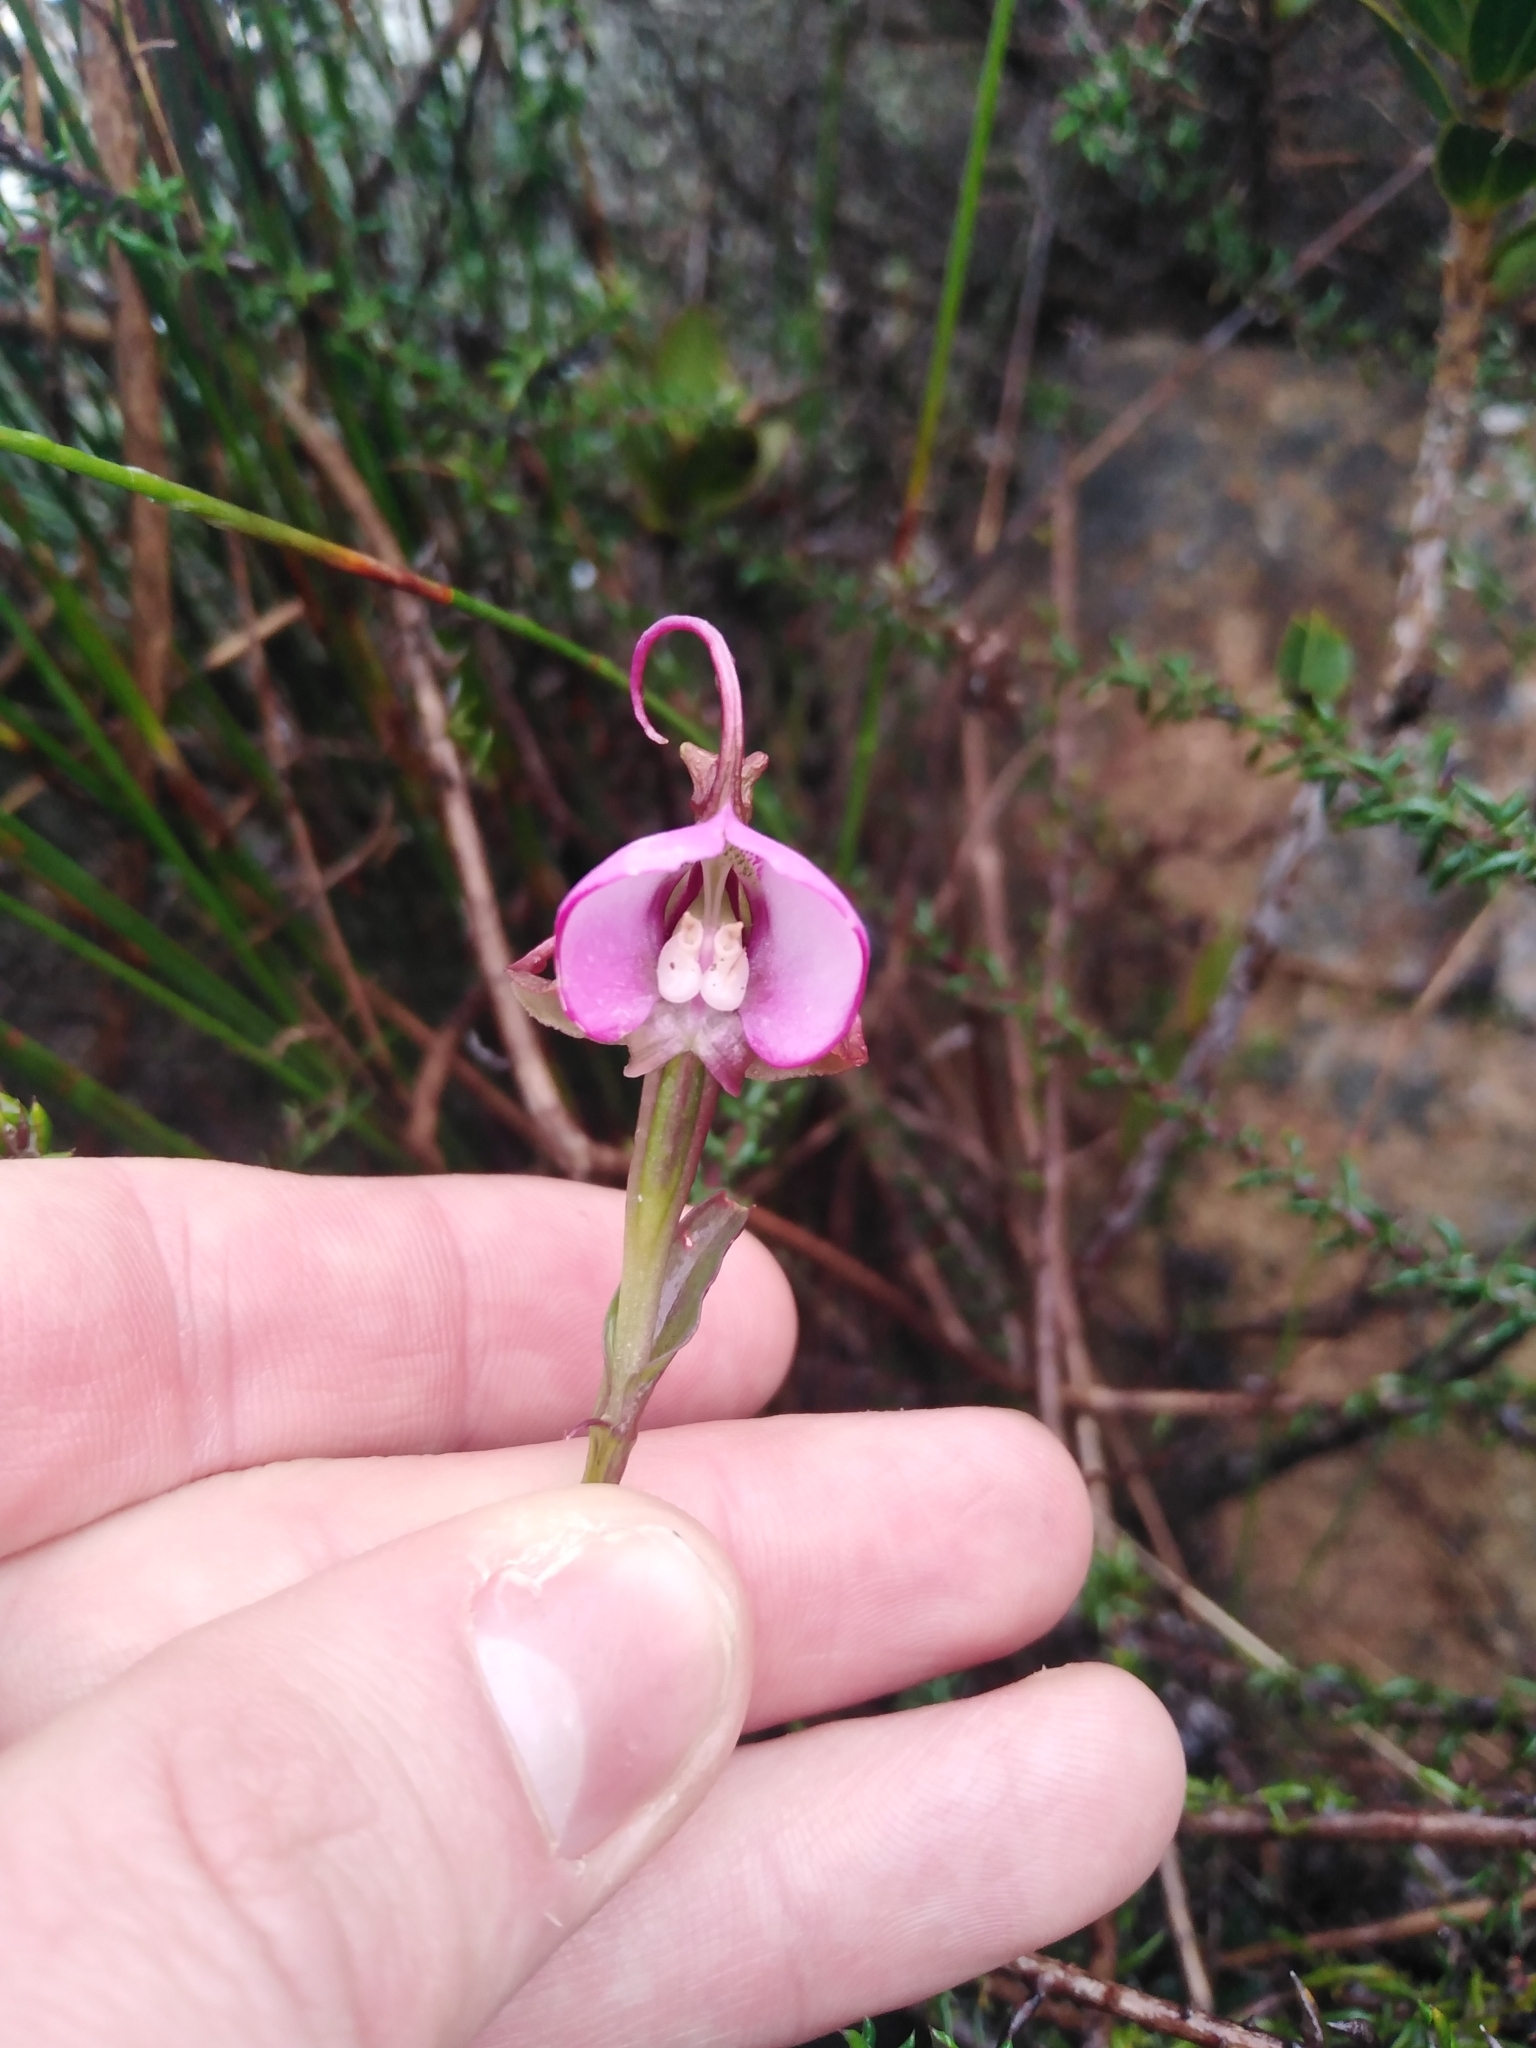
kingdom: Plantae
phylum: Tracheophyta
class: Liliopsida
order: Asparagales
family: Orchidaceae
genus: Disperis
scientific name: Disperis capensis
